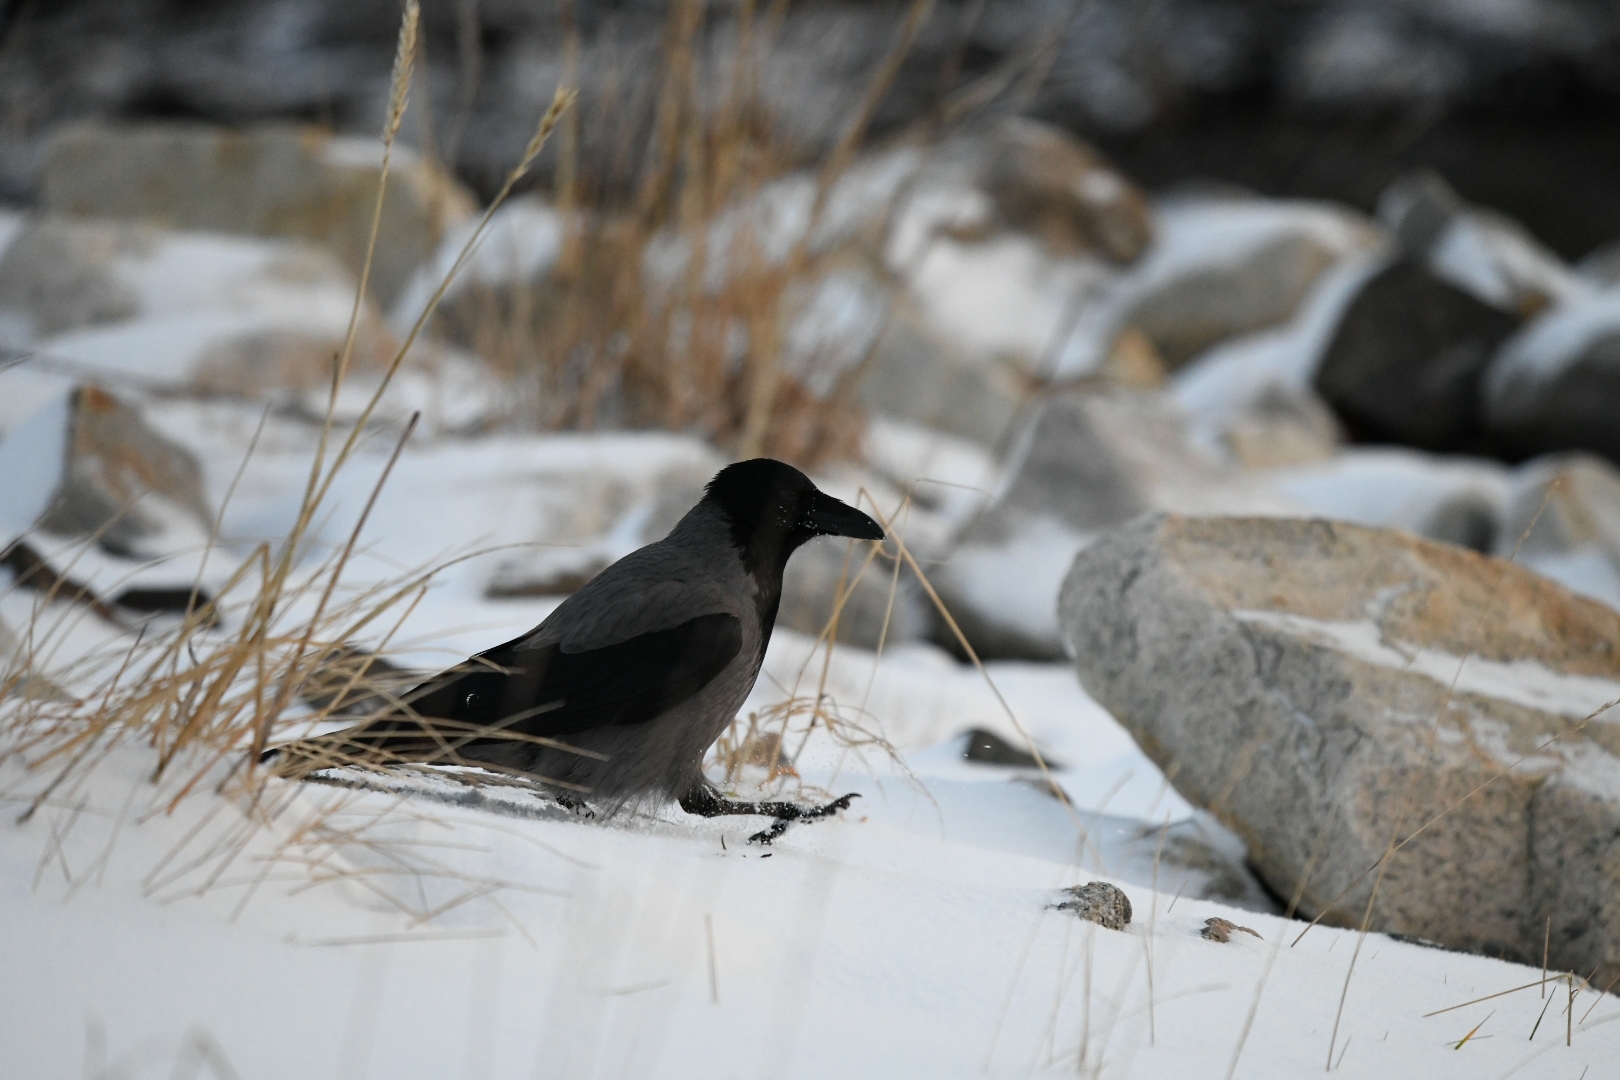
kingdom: Animalia
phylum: Chordata
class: Aves
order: Passeriformes
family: Corvidae
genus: Corvus
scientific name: Corvus cornix
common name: Hooded crow
